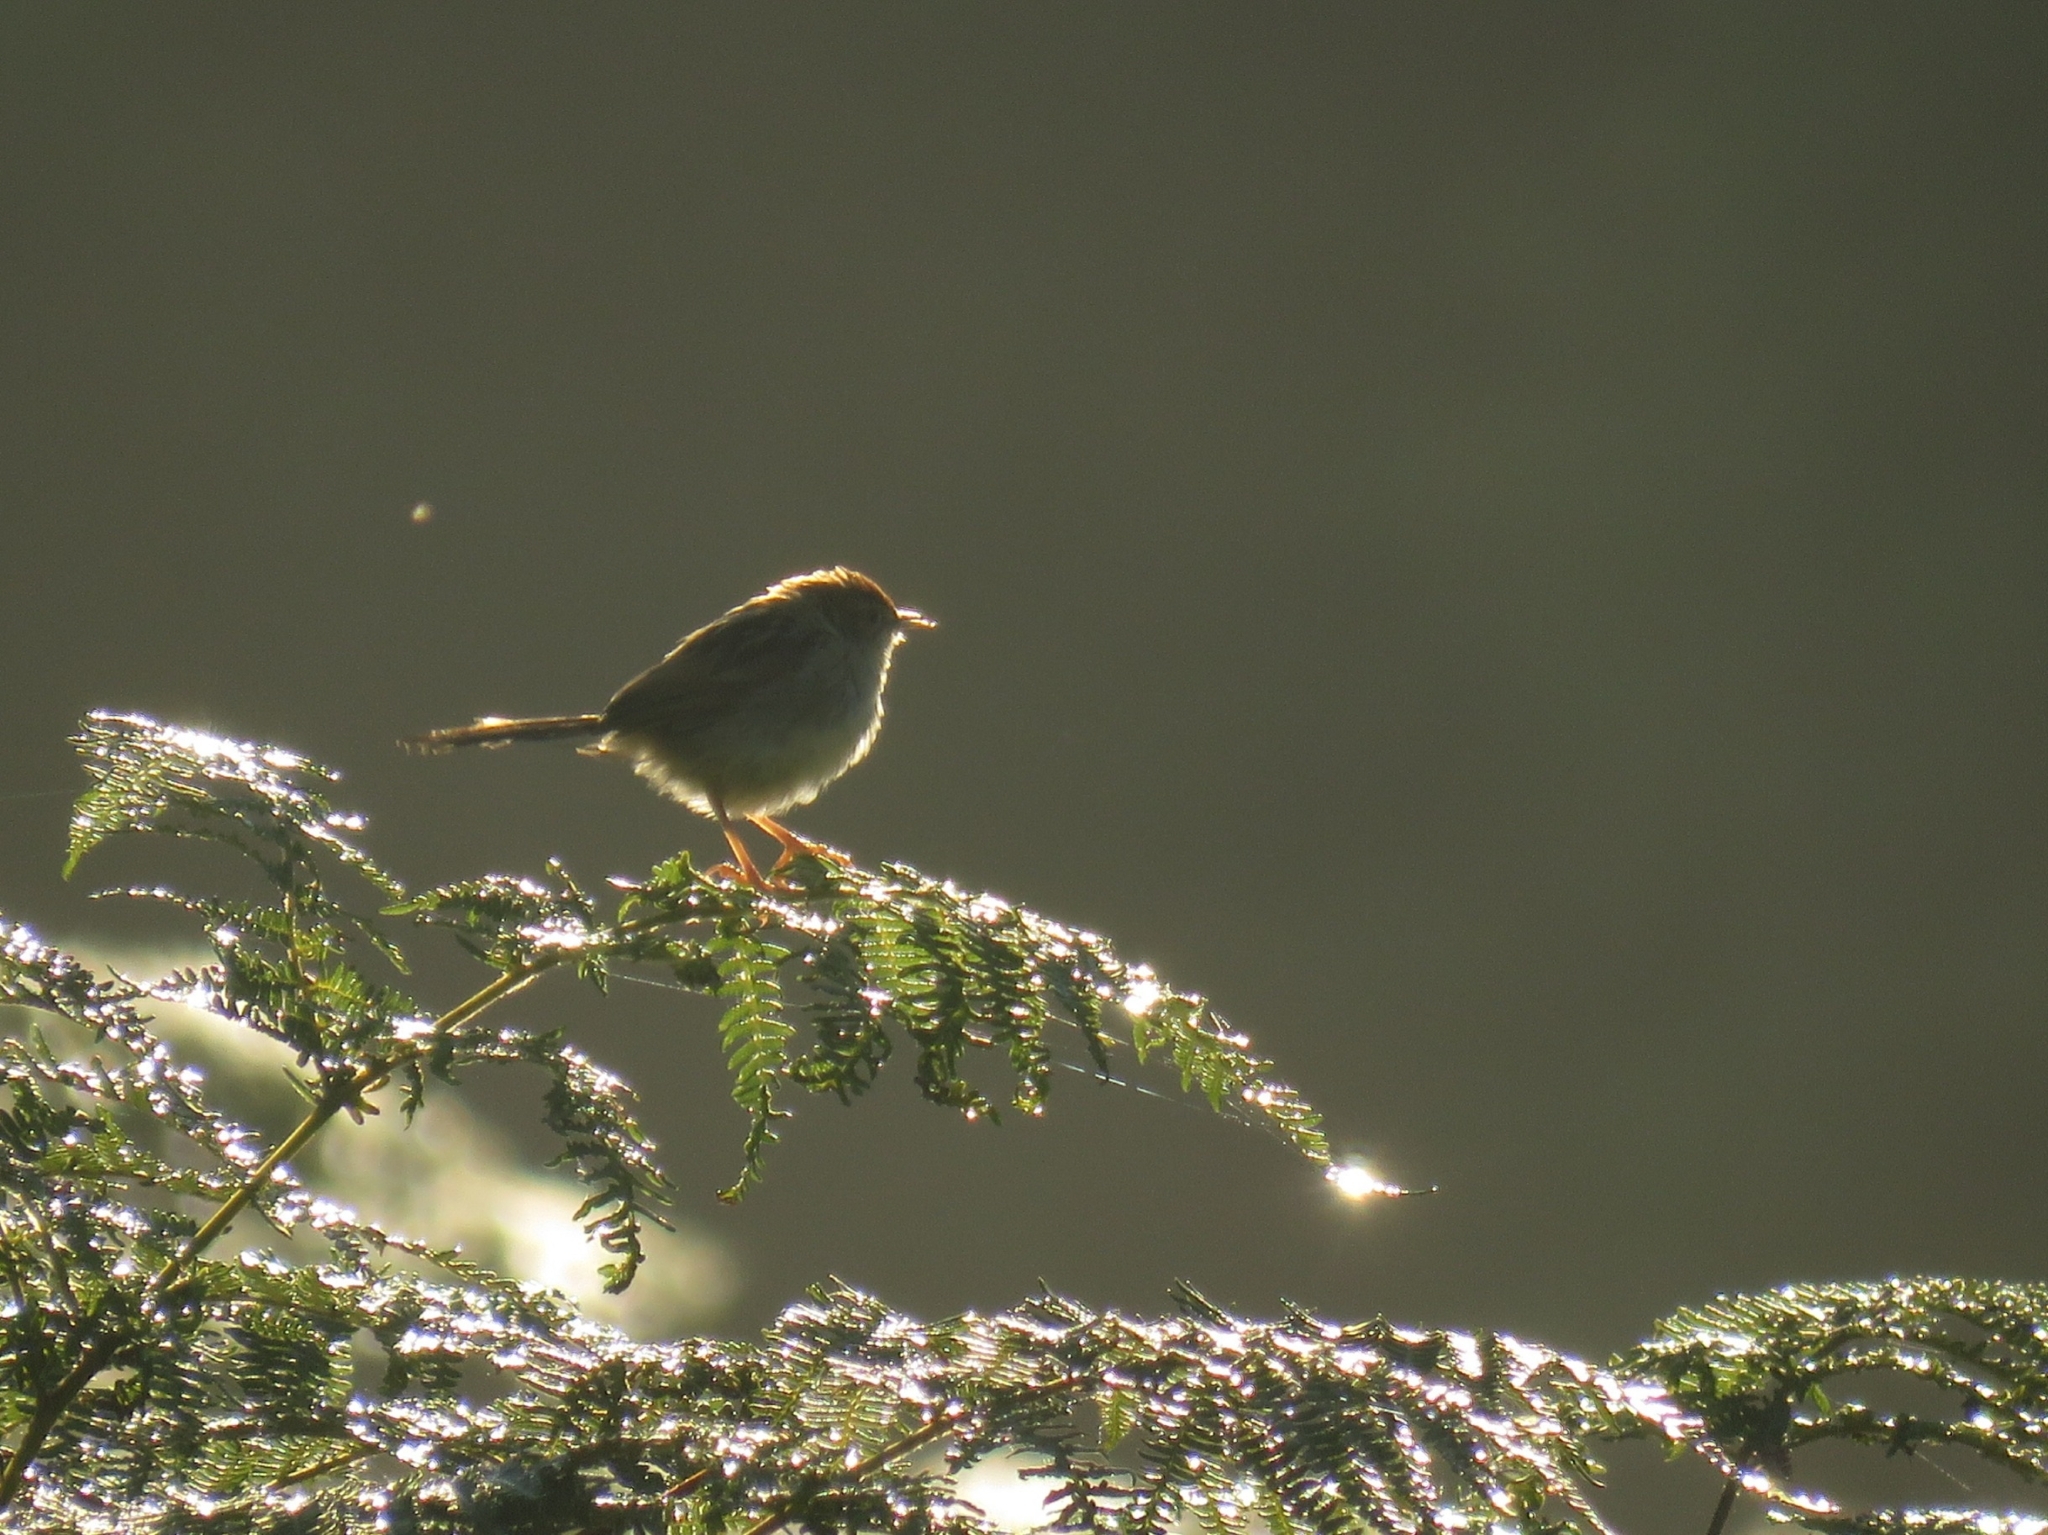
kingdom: Animalia
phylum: Chordata
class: Aves
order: Passeriformes
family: Cisticolidae
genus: Cisticola
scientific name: Cisticola tinniens
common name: Levaillant's cisticola
